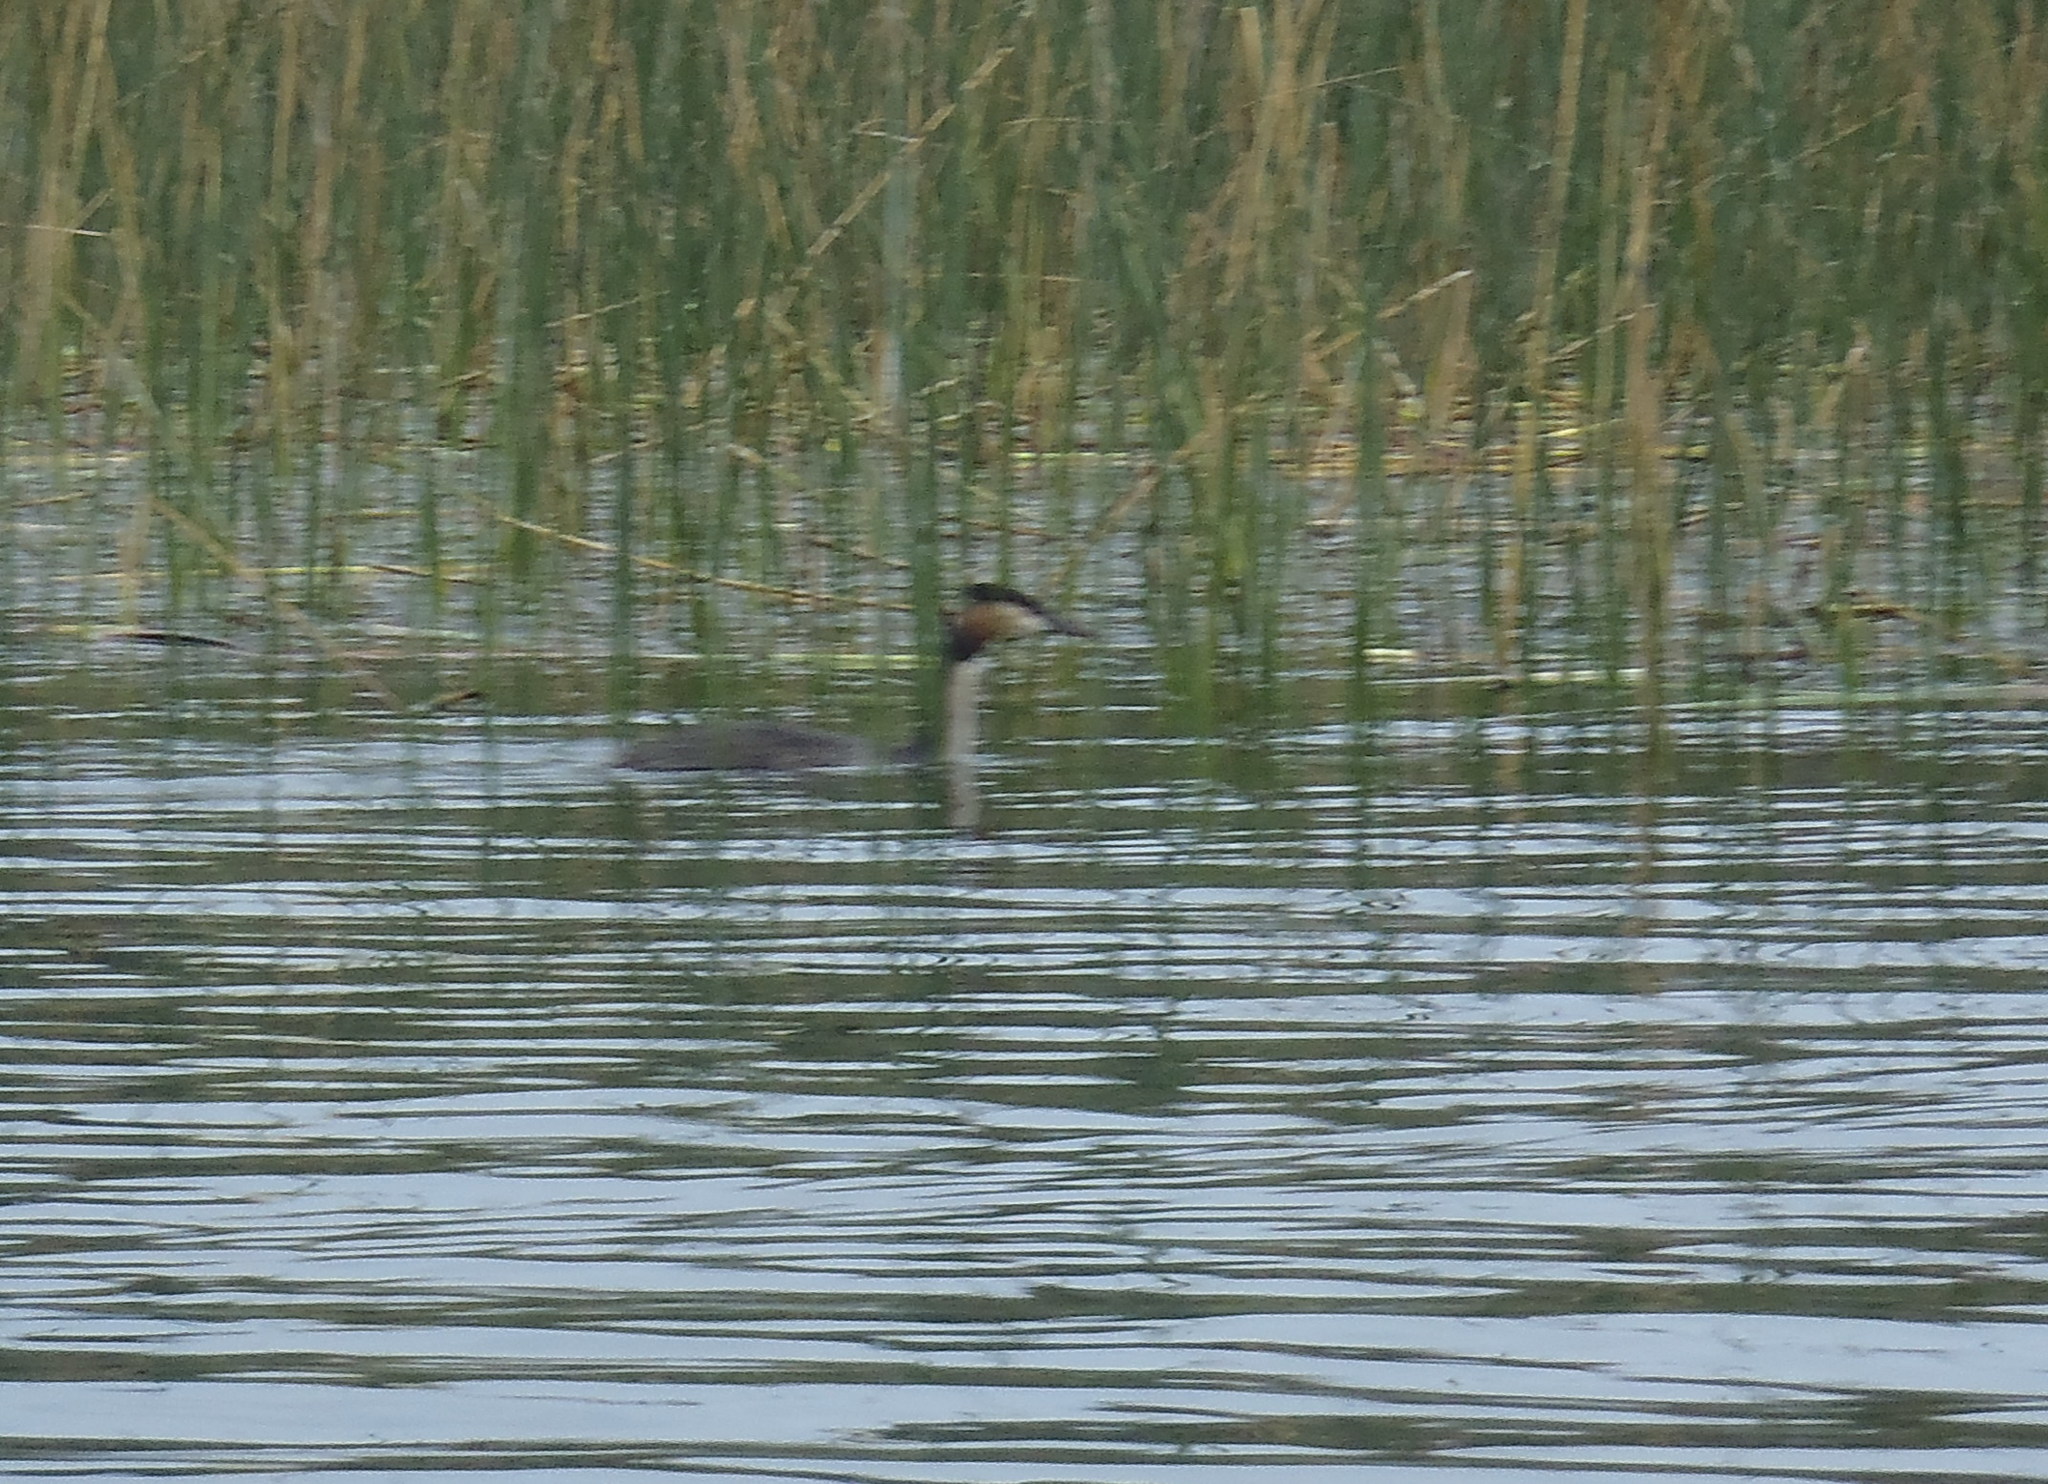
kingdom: Animalia
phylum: Chordata
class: Aves
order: Podicipediformes
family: Podicipedidae
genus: Podiceps
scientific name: Podiceps cristatus
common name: Great crested grebe
